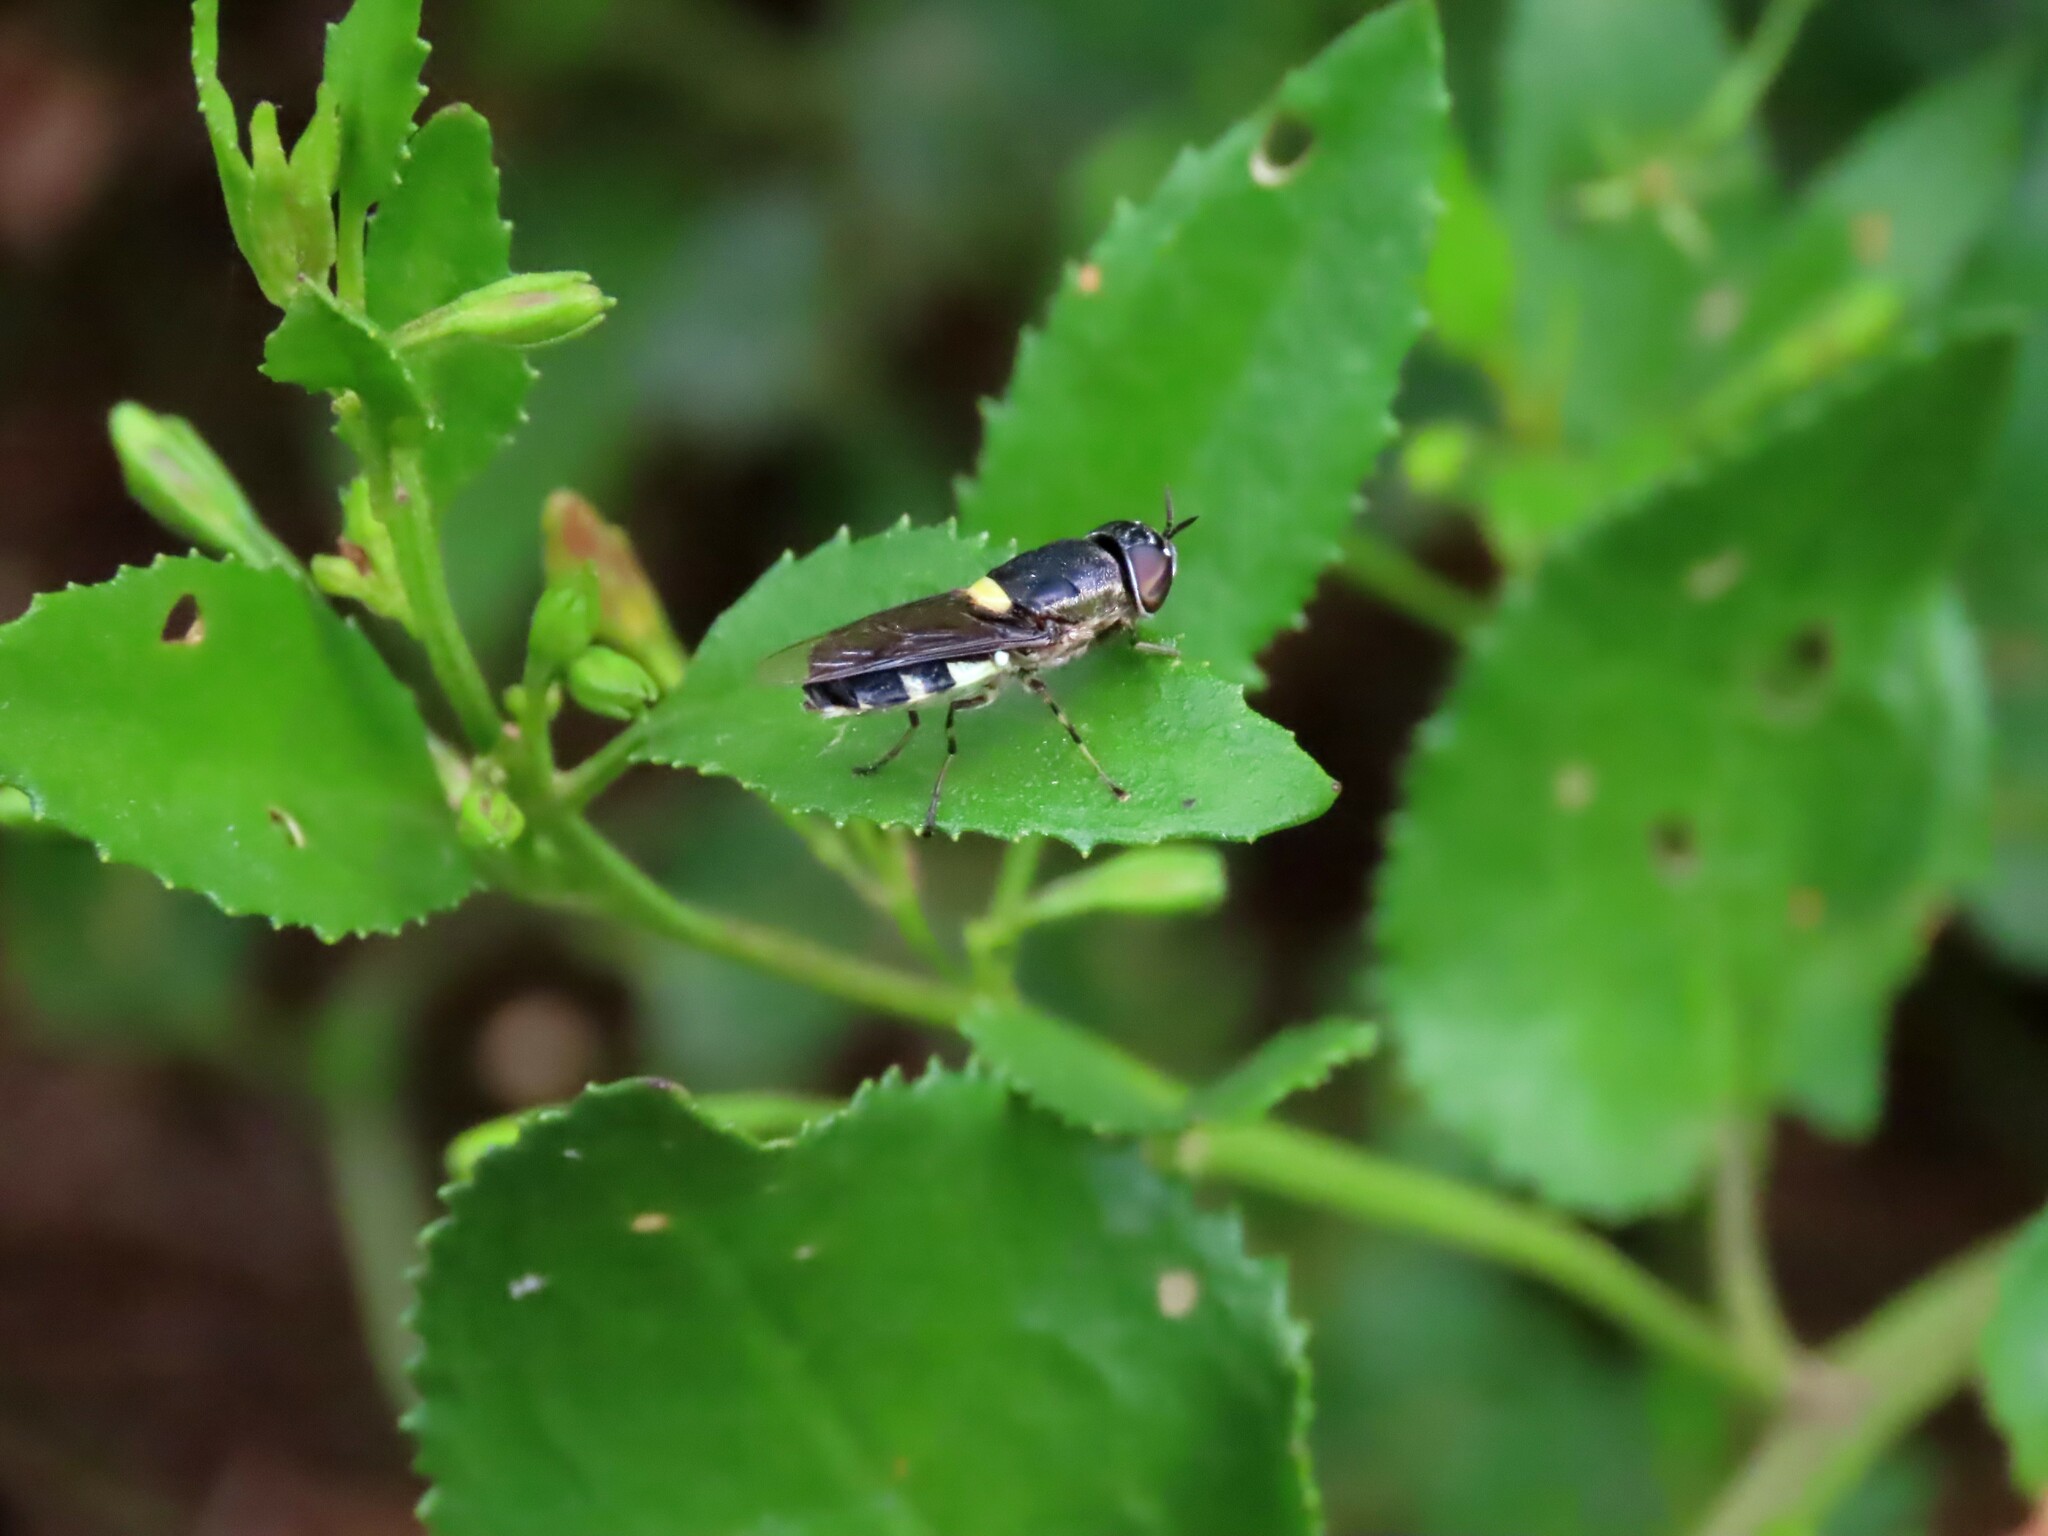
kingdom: Animalia
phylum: Arthropoda
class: Insecta
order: Diptera
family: Stratiomyidae
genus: Odontomyia
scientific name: Odontomyia hunteri
